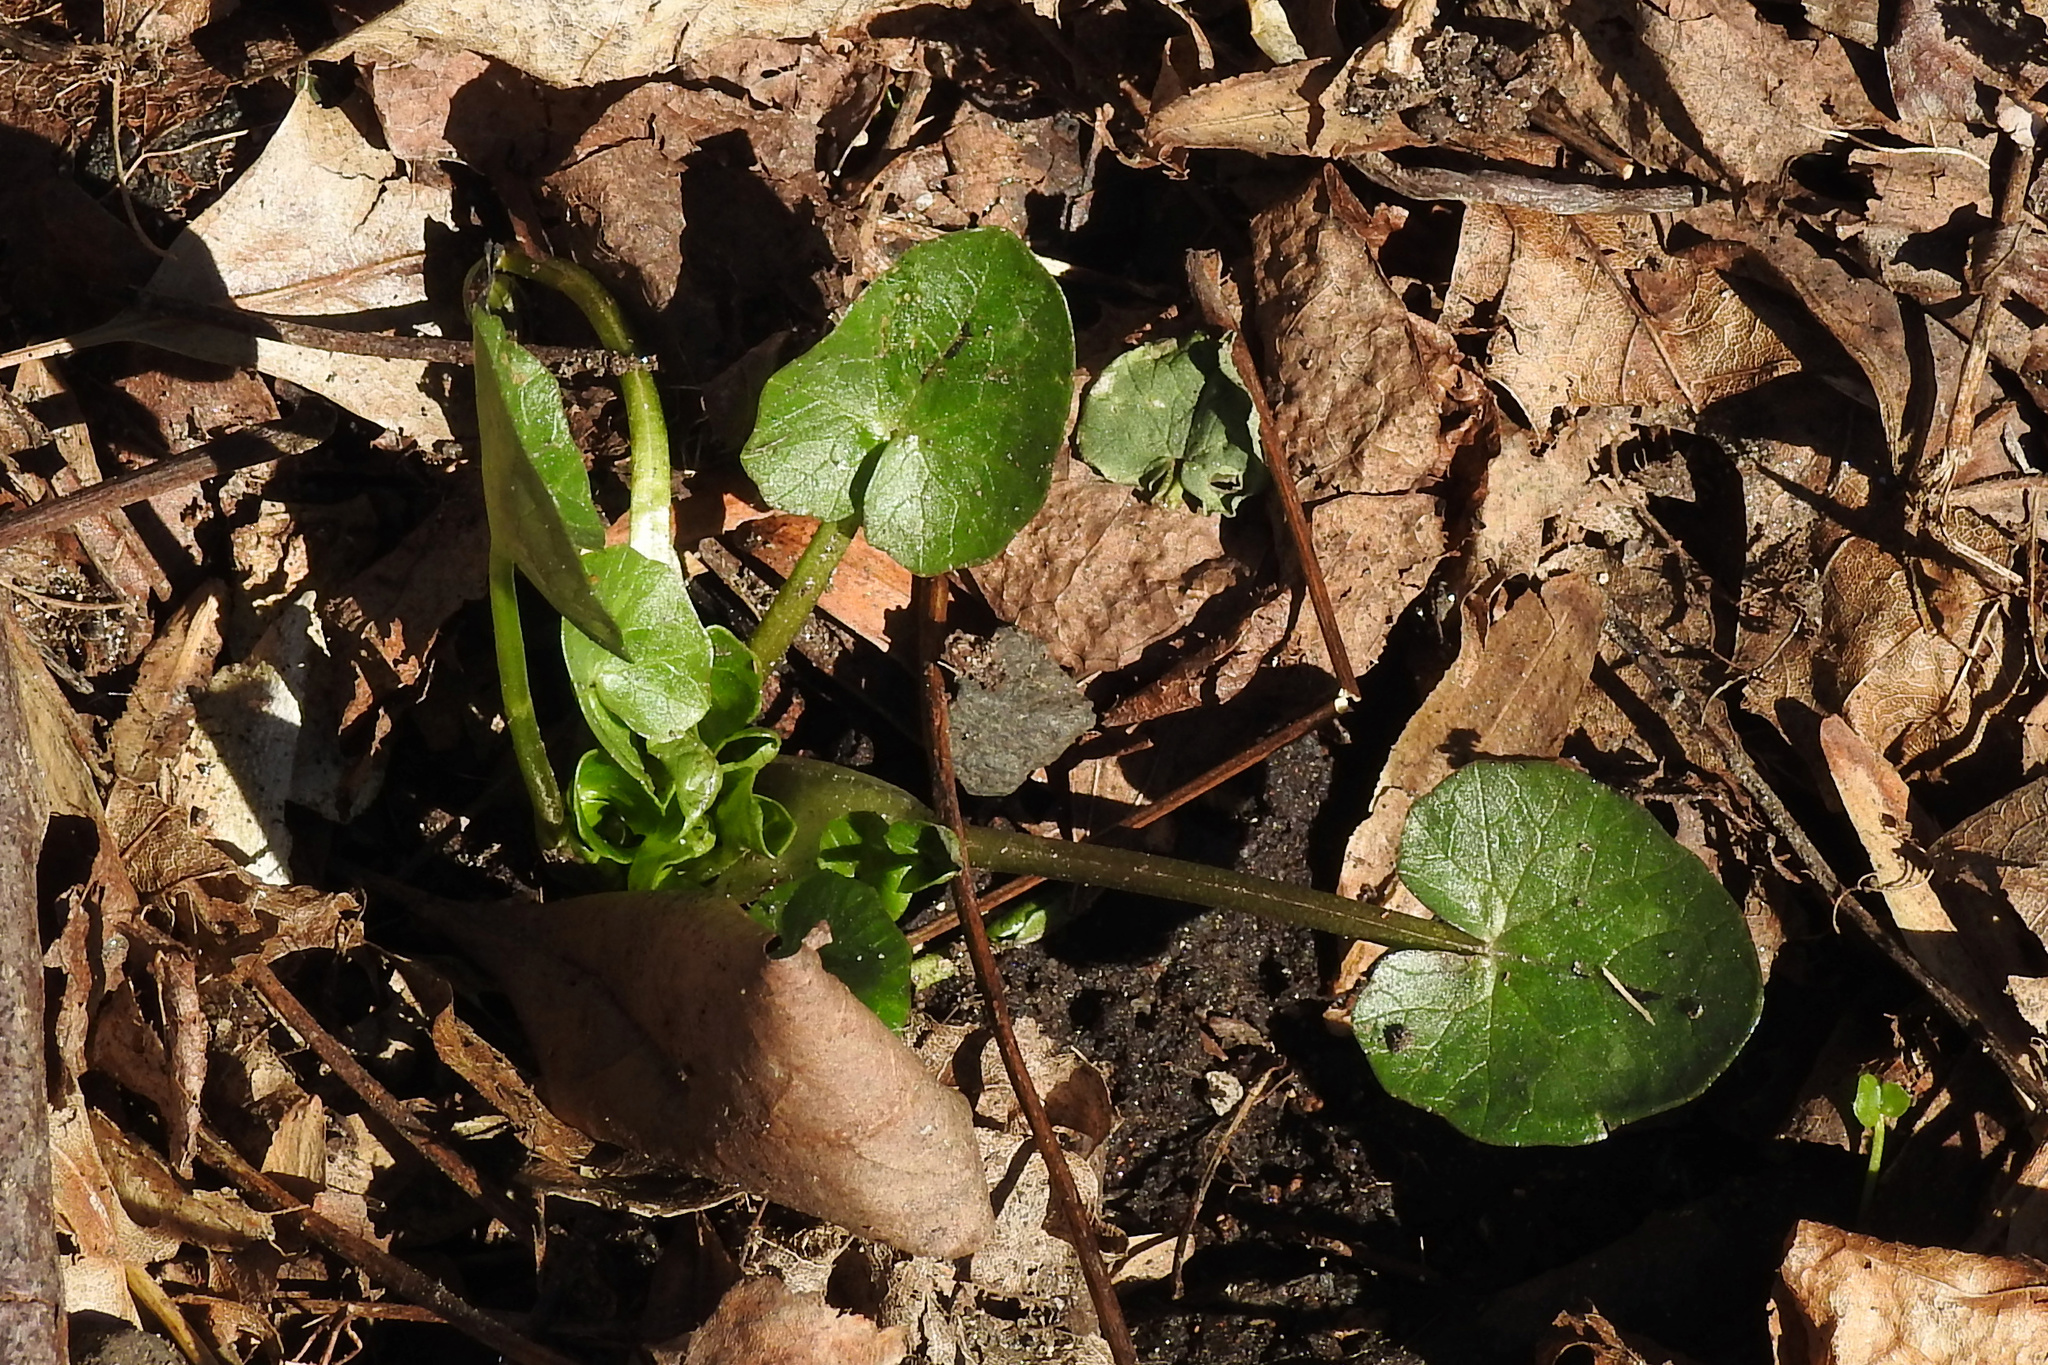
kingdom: Plantae
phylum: Tracheophyta
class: Magnoliopsida
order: Ranunculales
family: Ranunculaceae
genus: Ficaria
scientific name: Ficaria verna
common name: Lesser celandine
